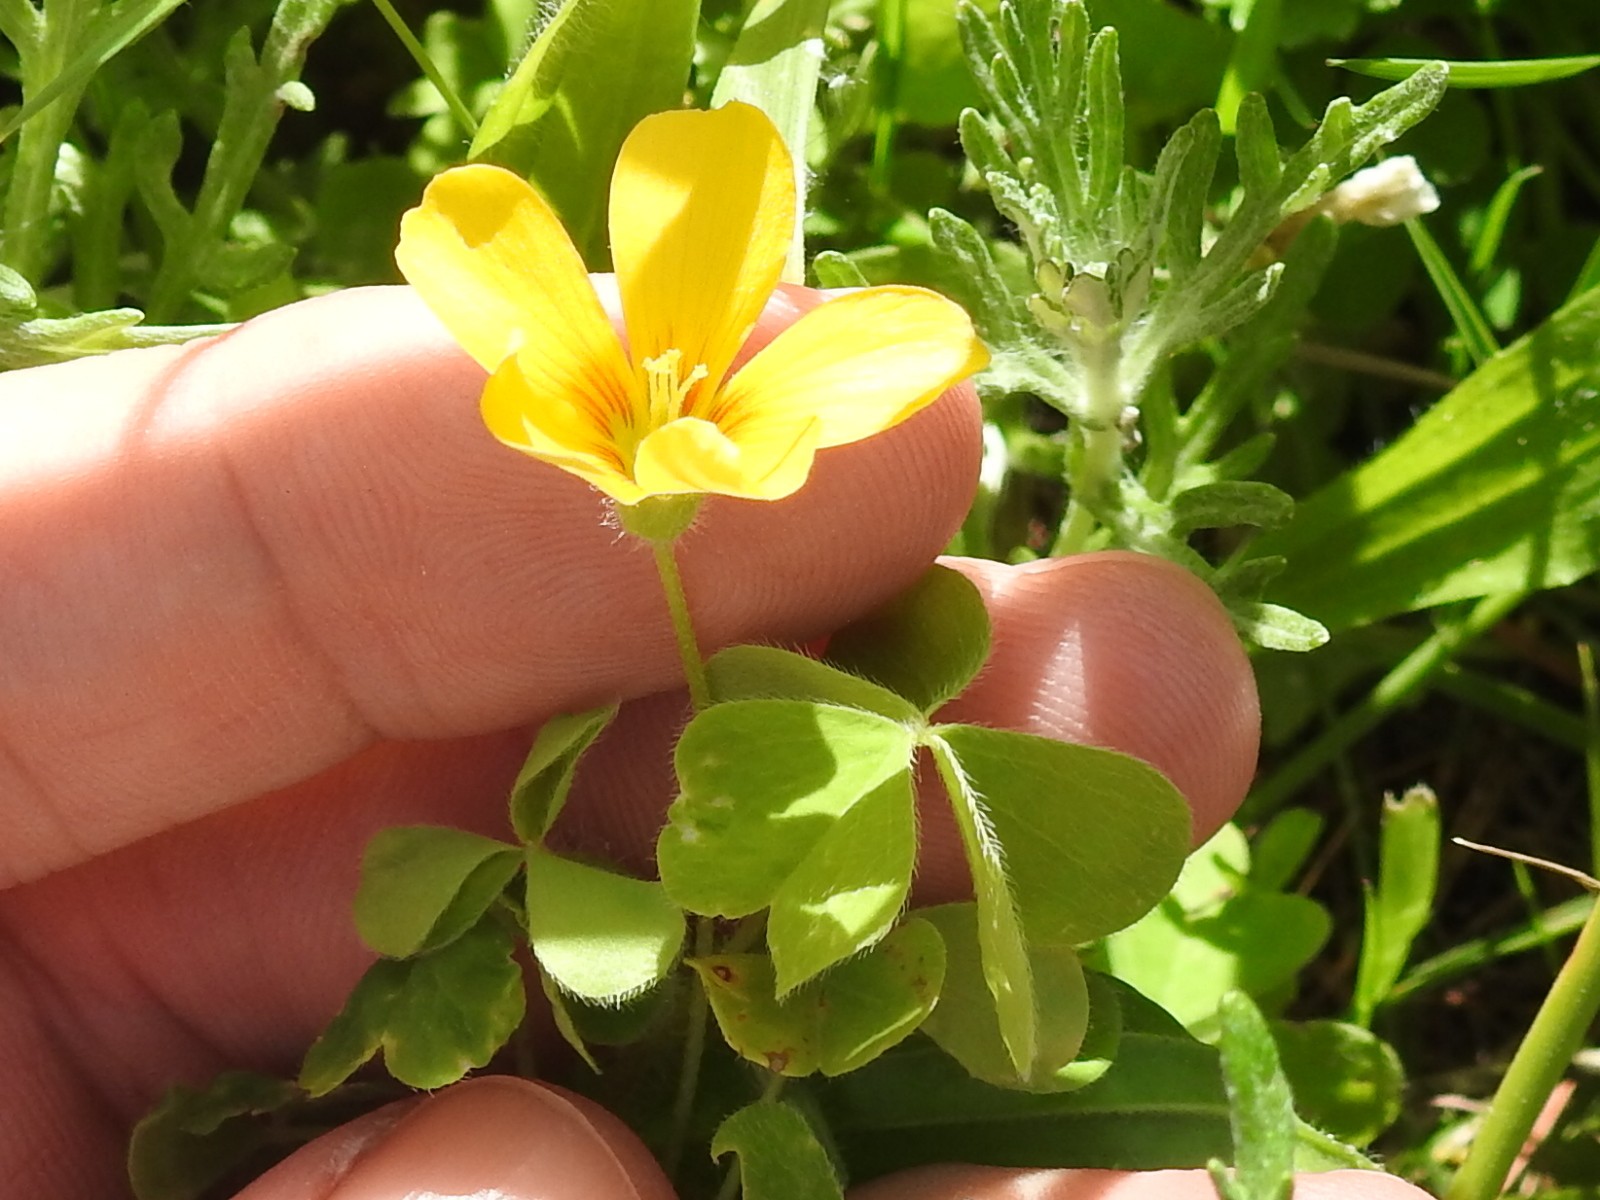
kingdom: Plantae
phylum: Tracheophyta
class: Magnoliopsida
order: Oxalidales
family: Oxalidaceae
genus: Oxalis
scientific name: Oxalis suksdorfii
